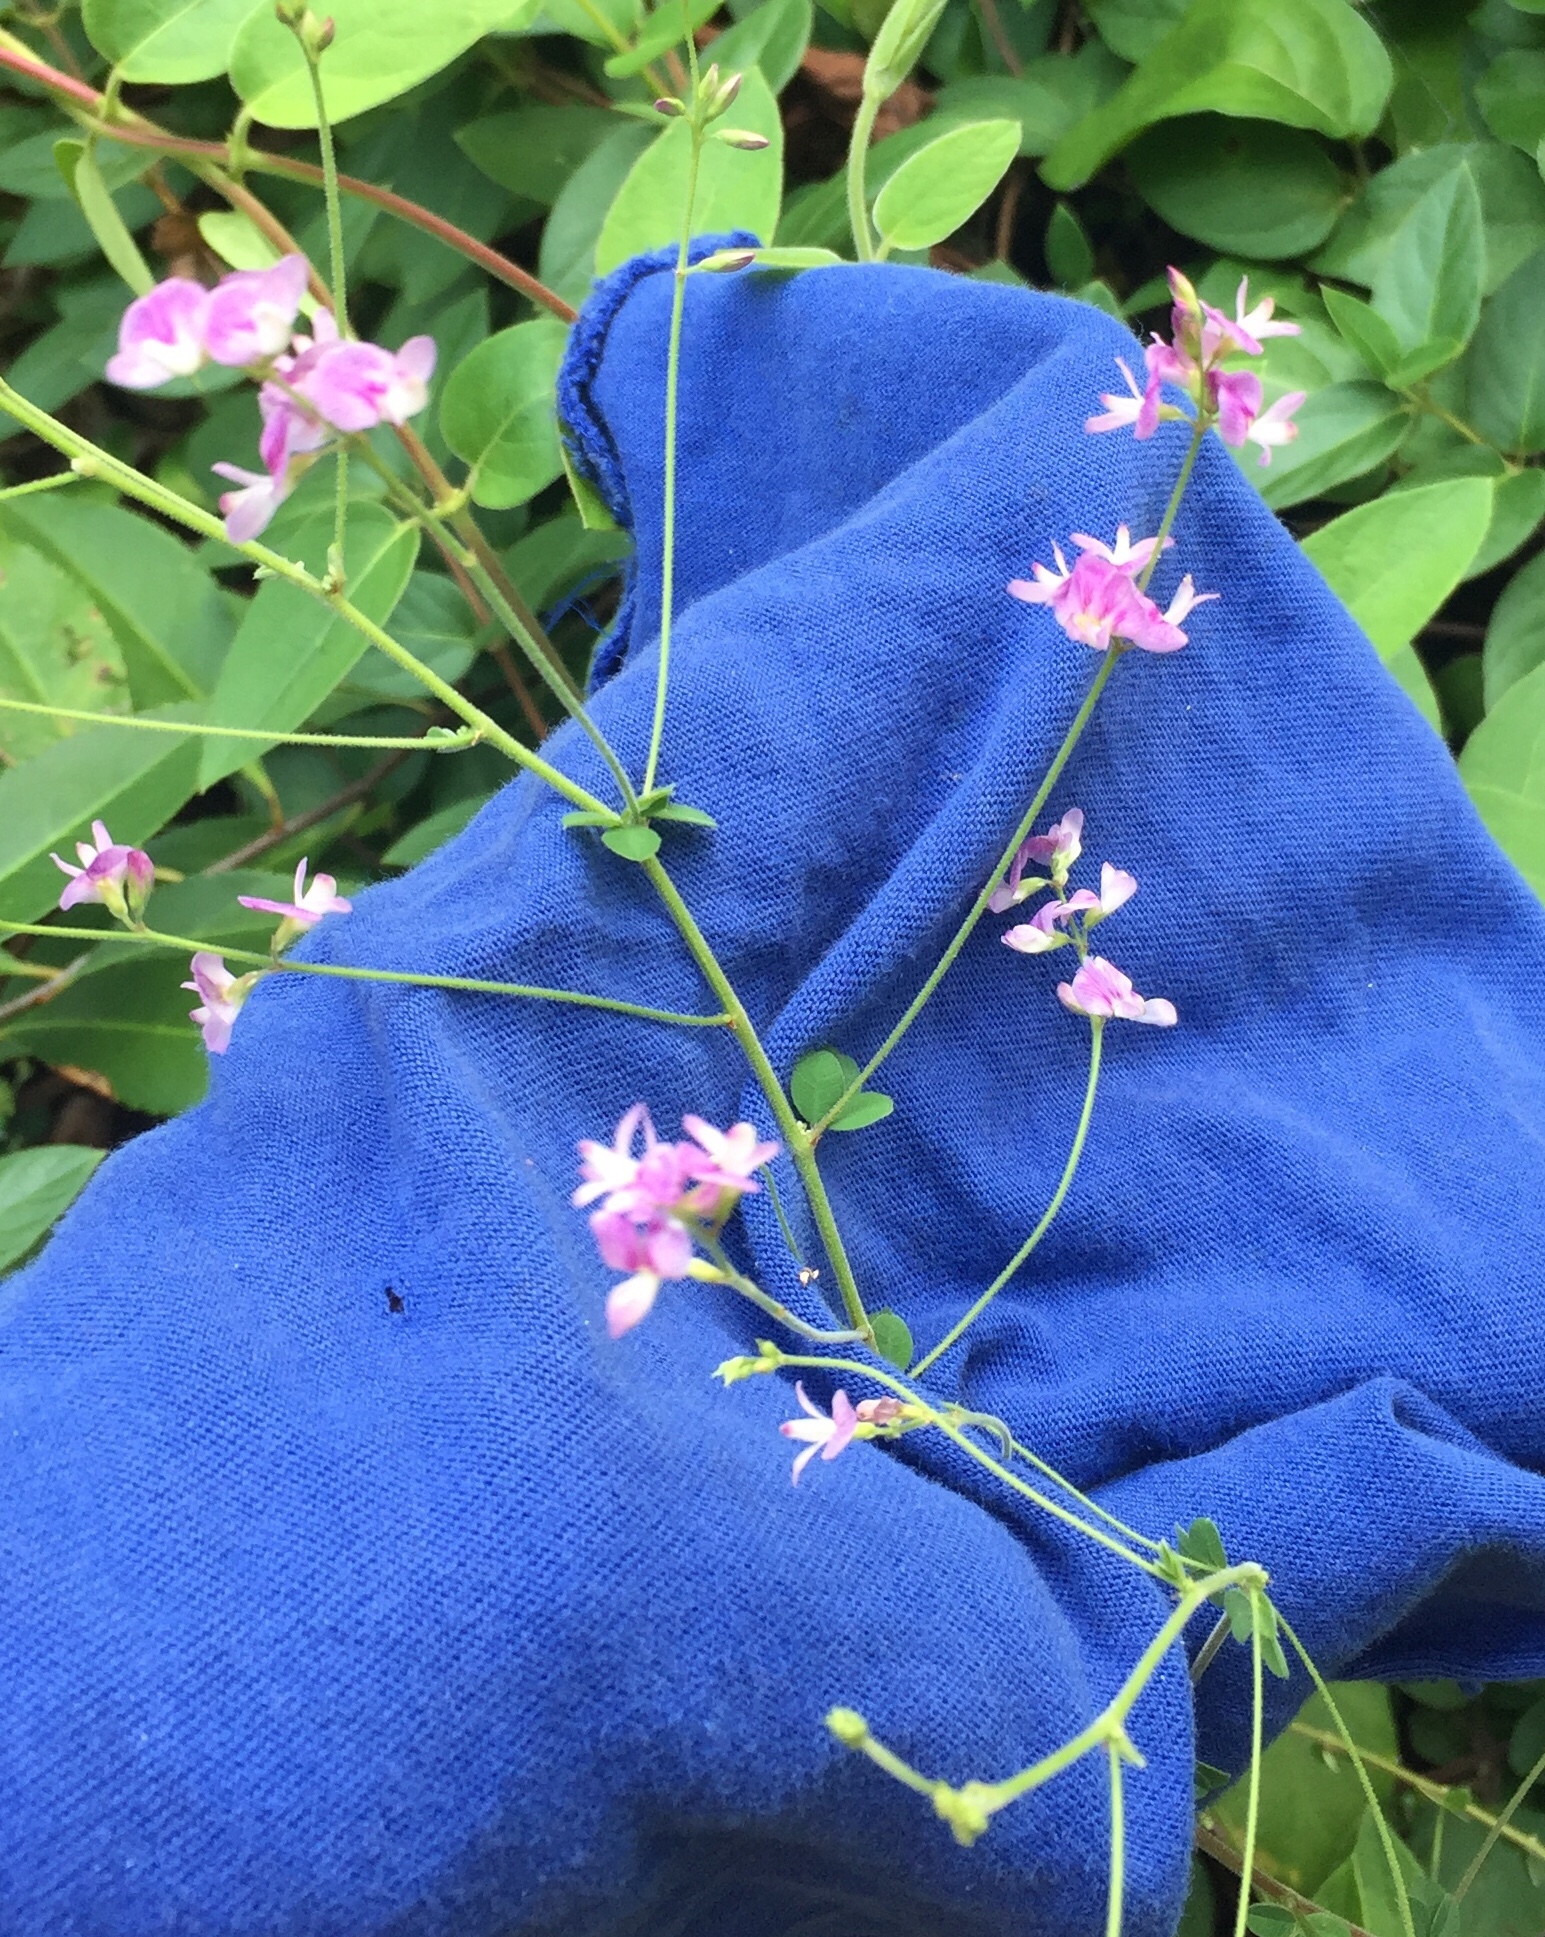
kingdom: Plantae
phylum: Tracheophyta
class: Magnoliopsida
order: Fabales
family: Fabaceae
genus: Lespedeza
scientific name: Lespedeza procumbens
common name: Downy trailing bush-clover
